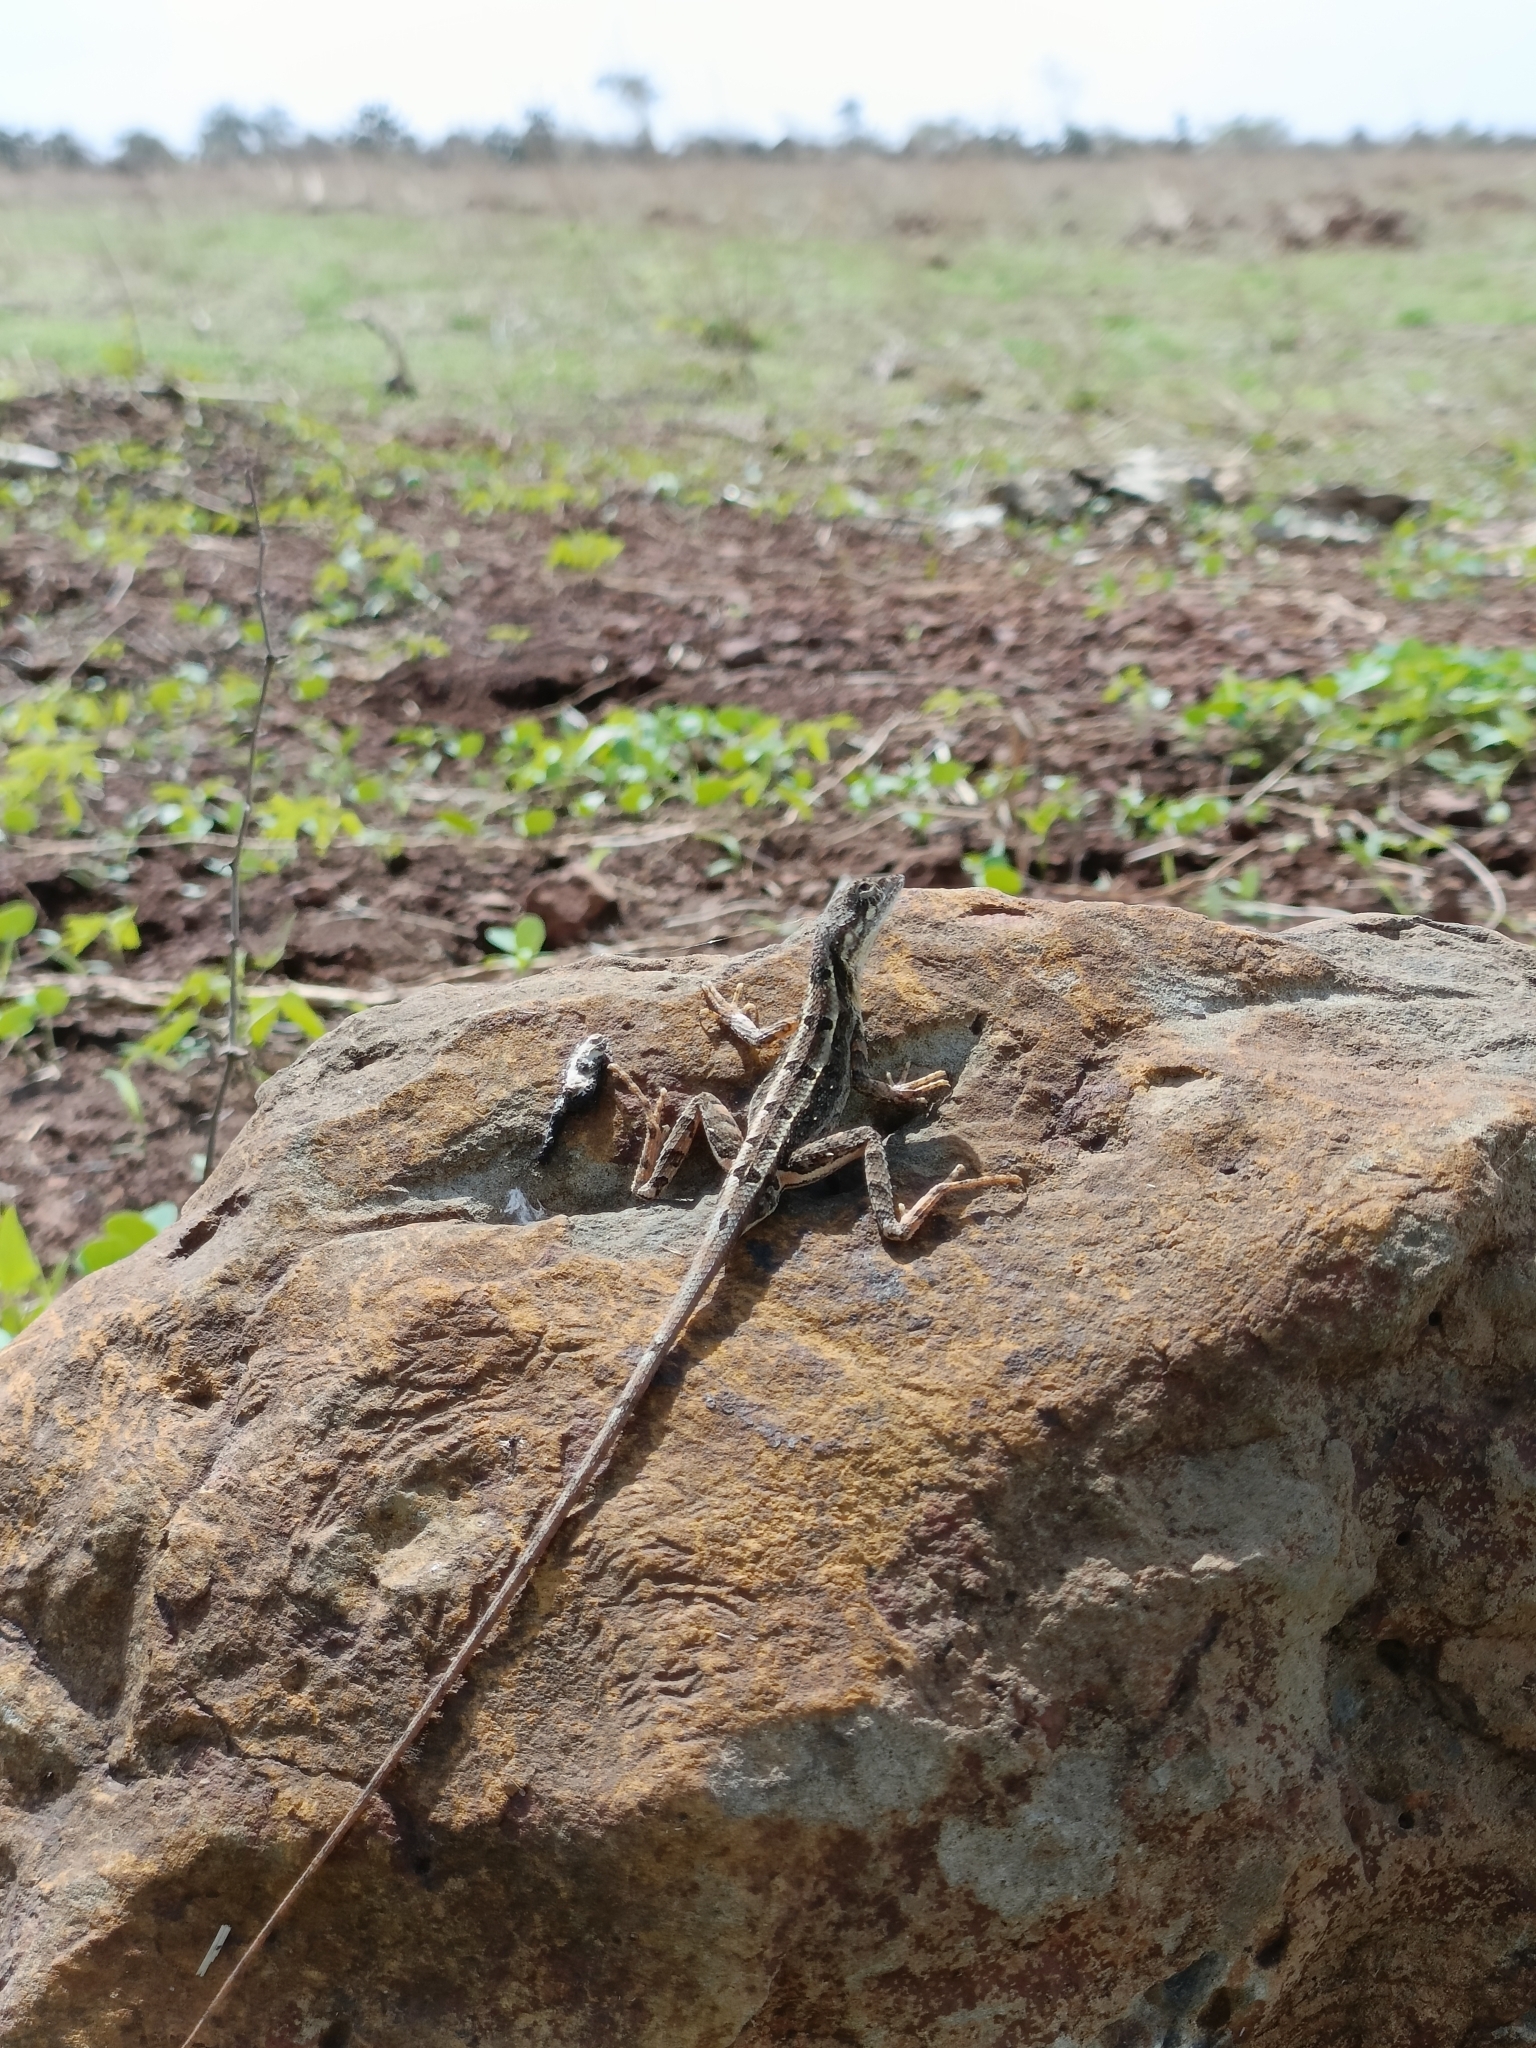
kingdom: Animalia
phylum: Chordata
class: Squamata
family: Agamidae
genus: Sitana
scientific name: Sitana spinaecephalus
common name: Spiny-headed fan-throated lizard
